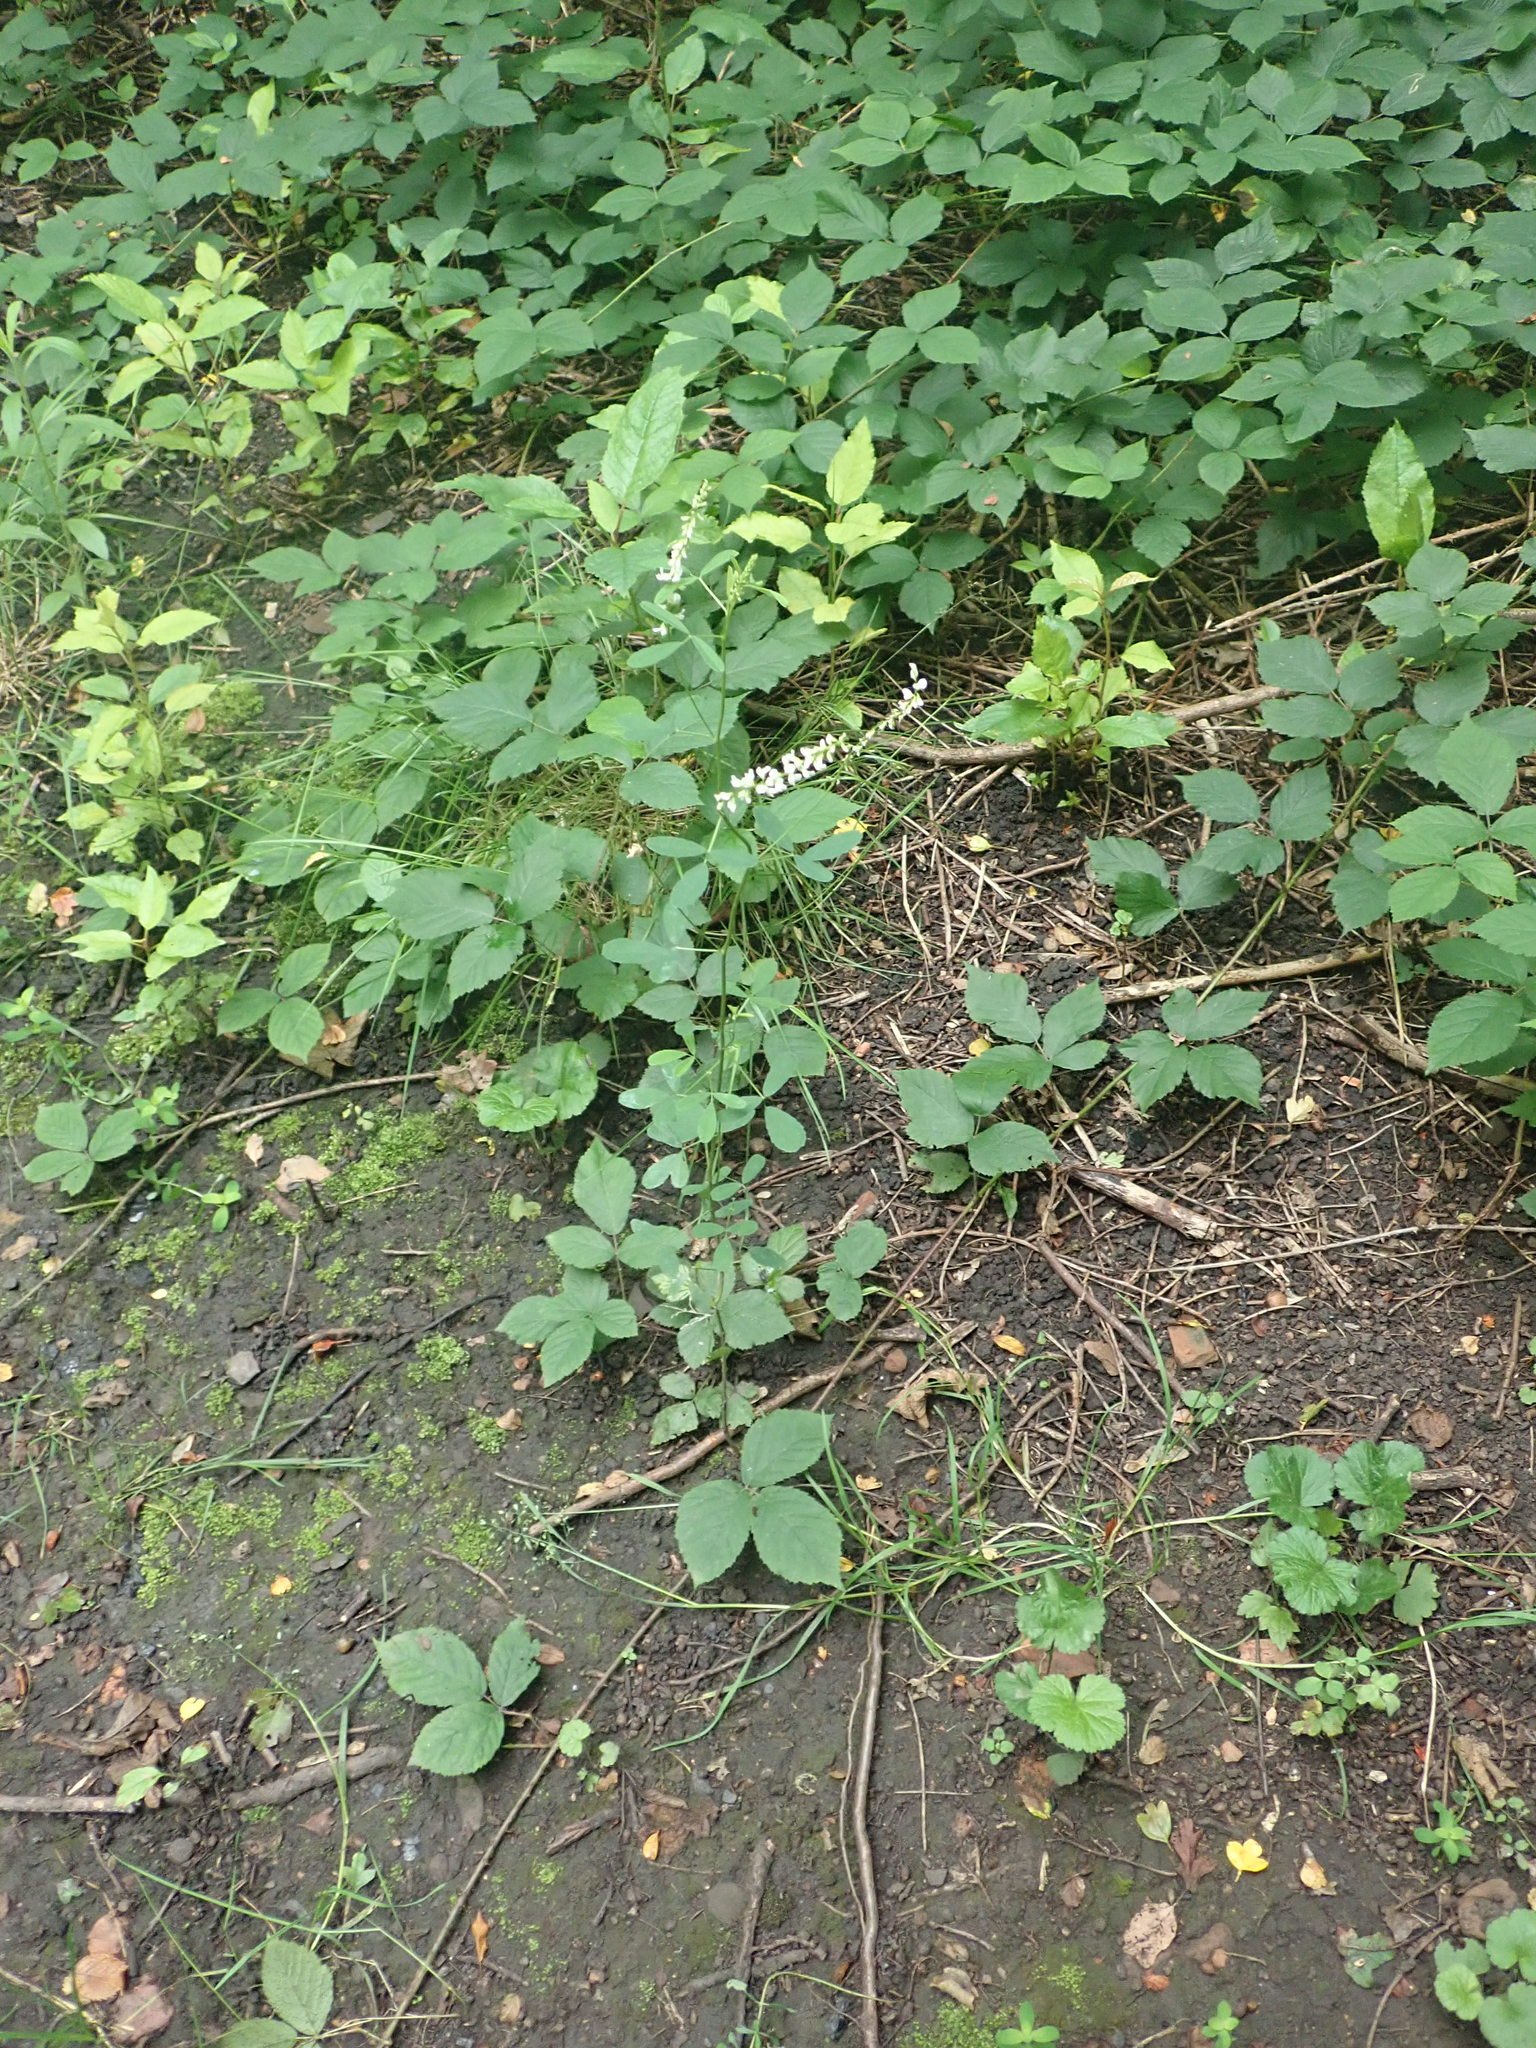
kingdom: Plantae
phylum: Tracheophyta
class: Magnoliopsida
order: Fabales
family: Fabaceae
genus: Melilotus
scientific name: Melilotus albus
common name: White melilot
